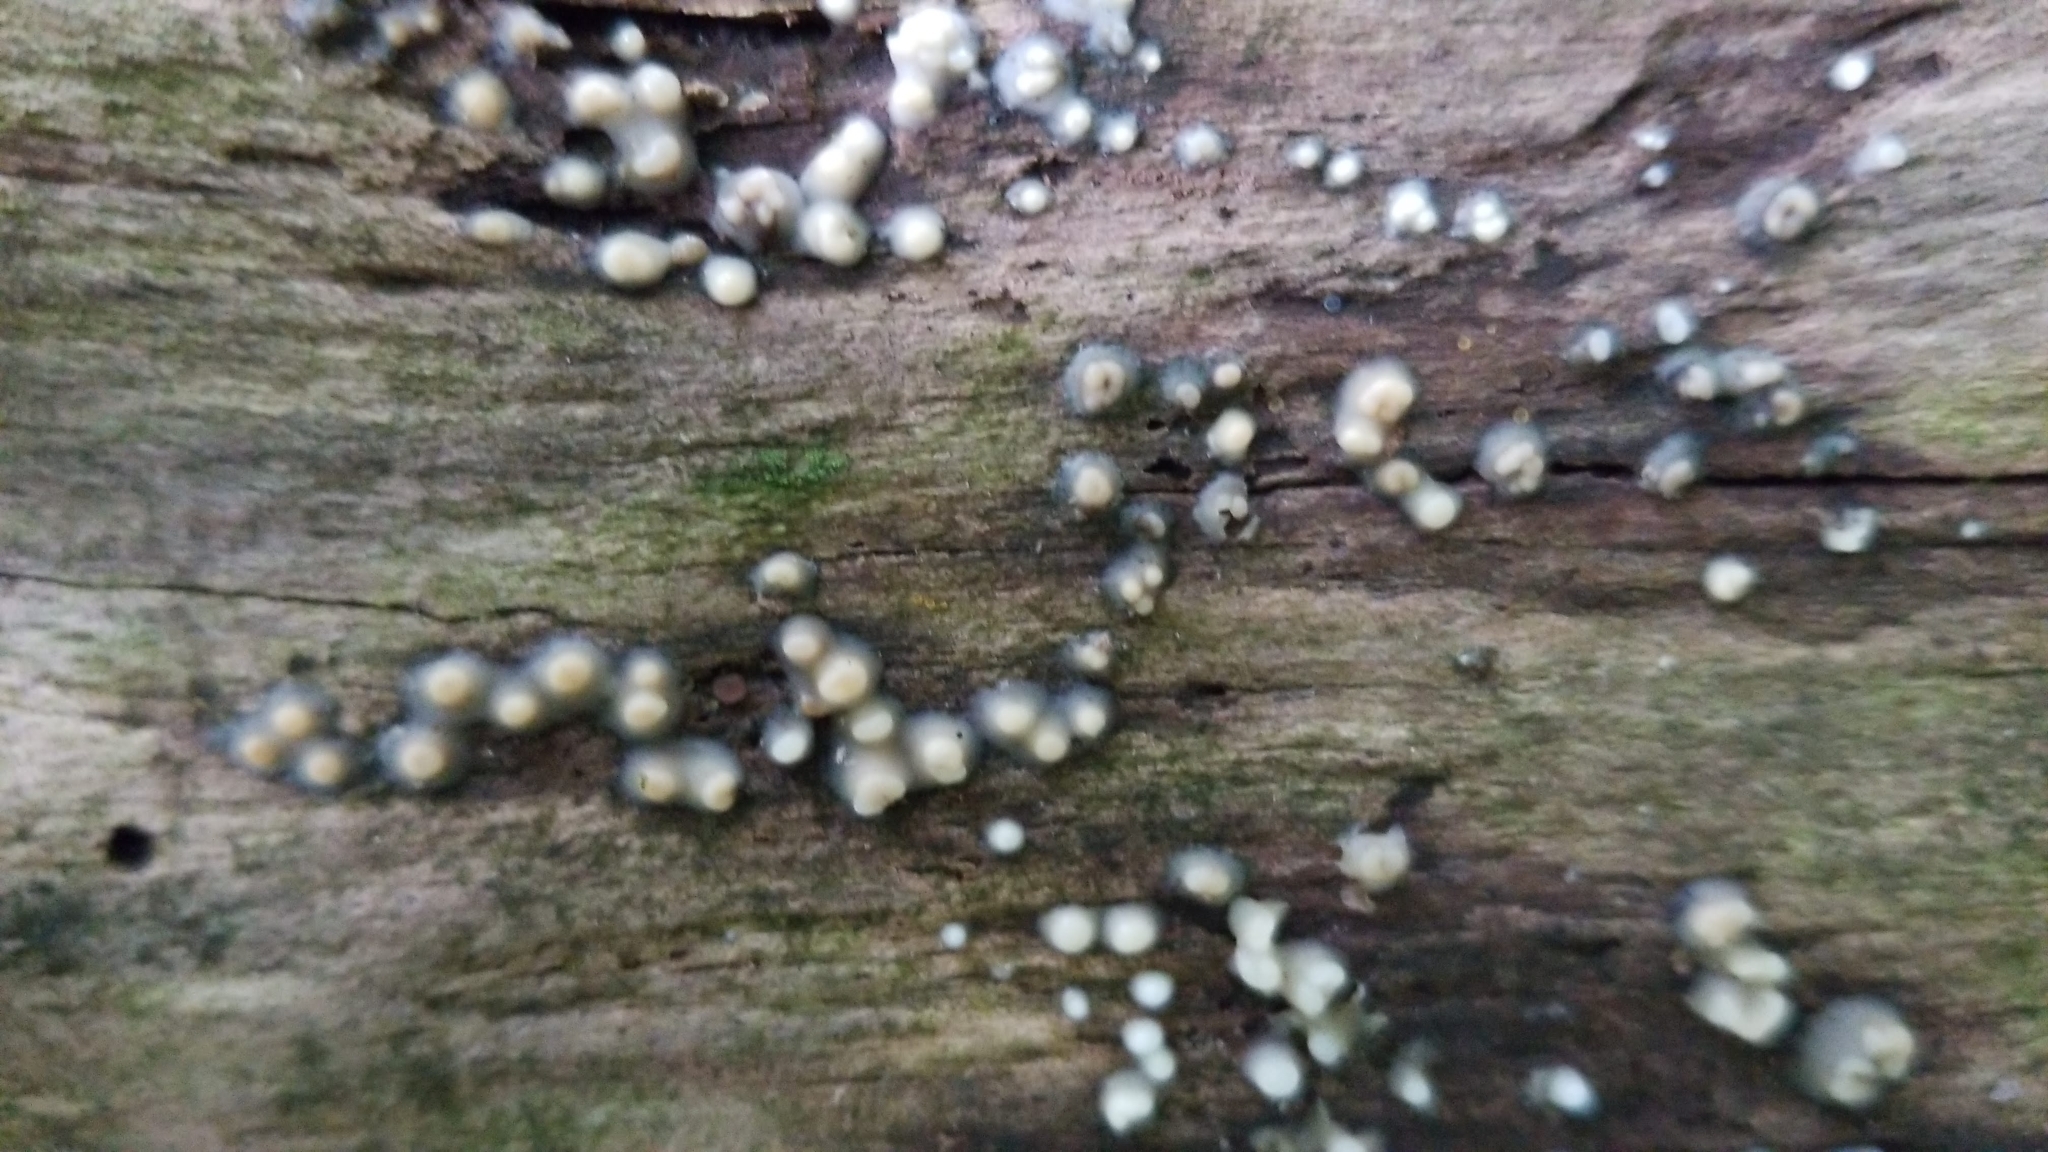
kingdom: Fungi
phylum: Basidiomycota
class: Atractiellomycetes
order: Atractiellales
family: Phleogenaceae
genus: Helicogloea
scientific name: Helicogloea compressa
